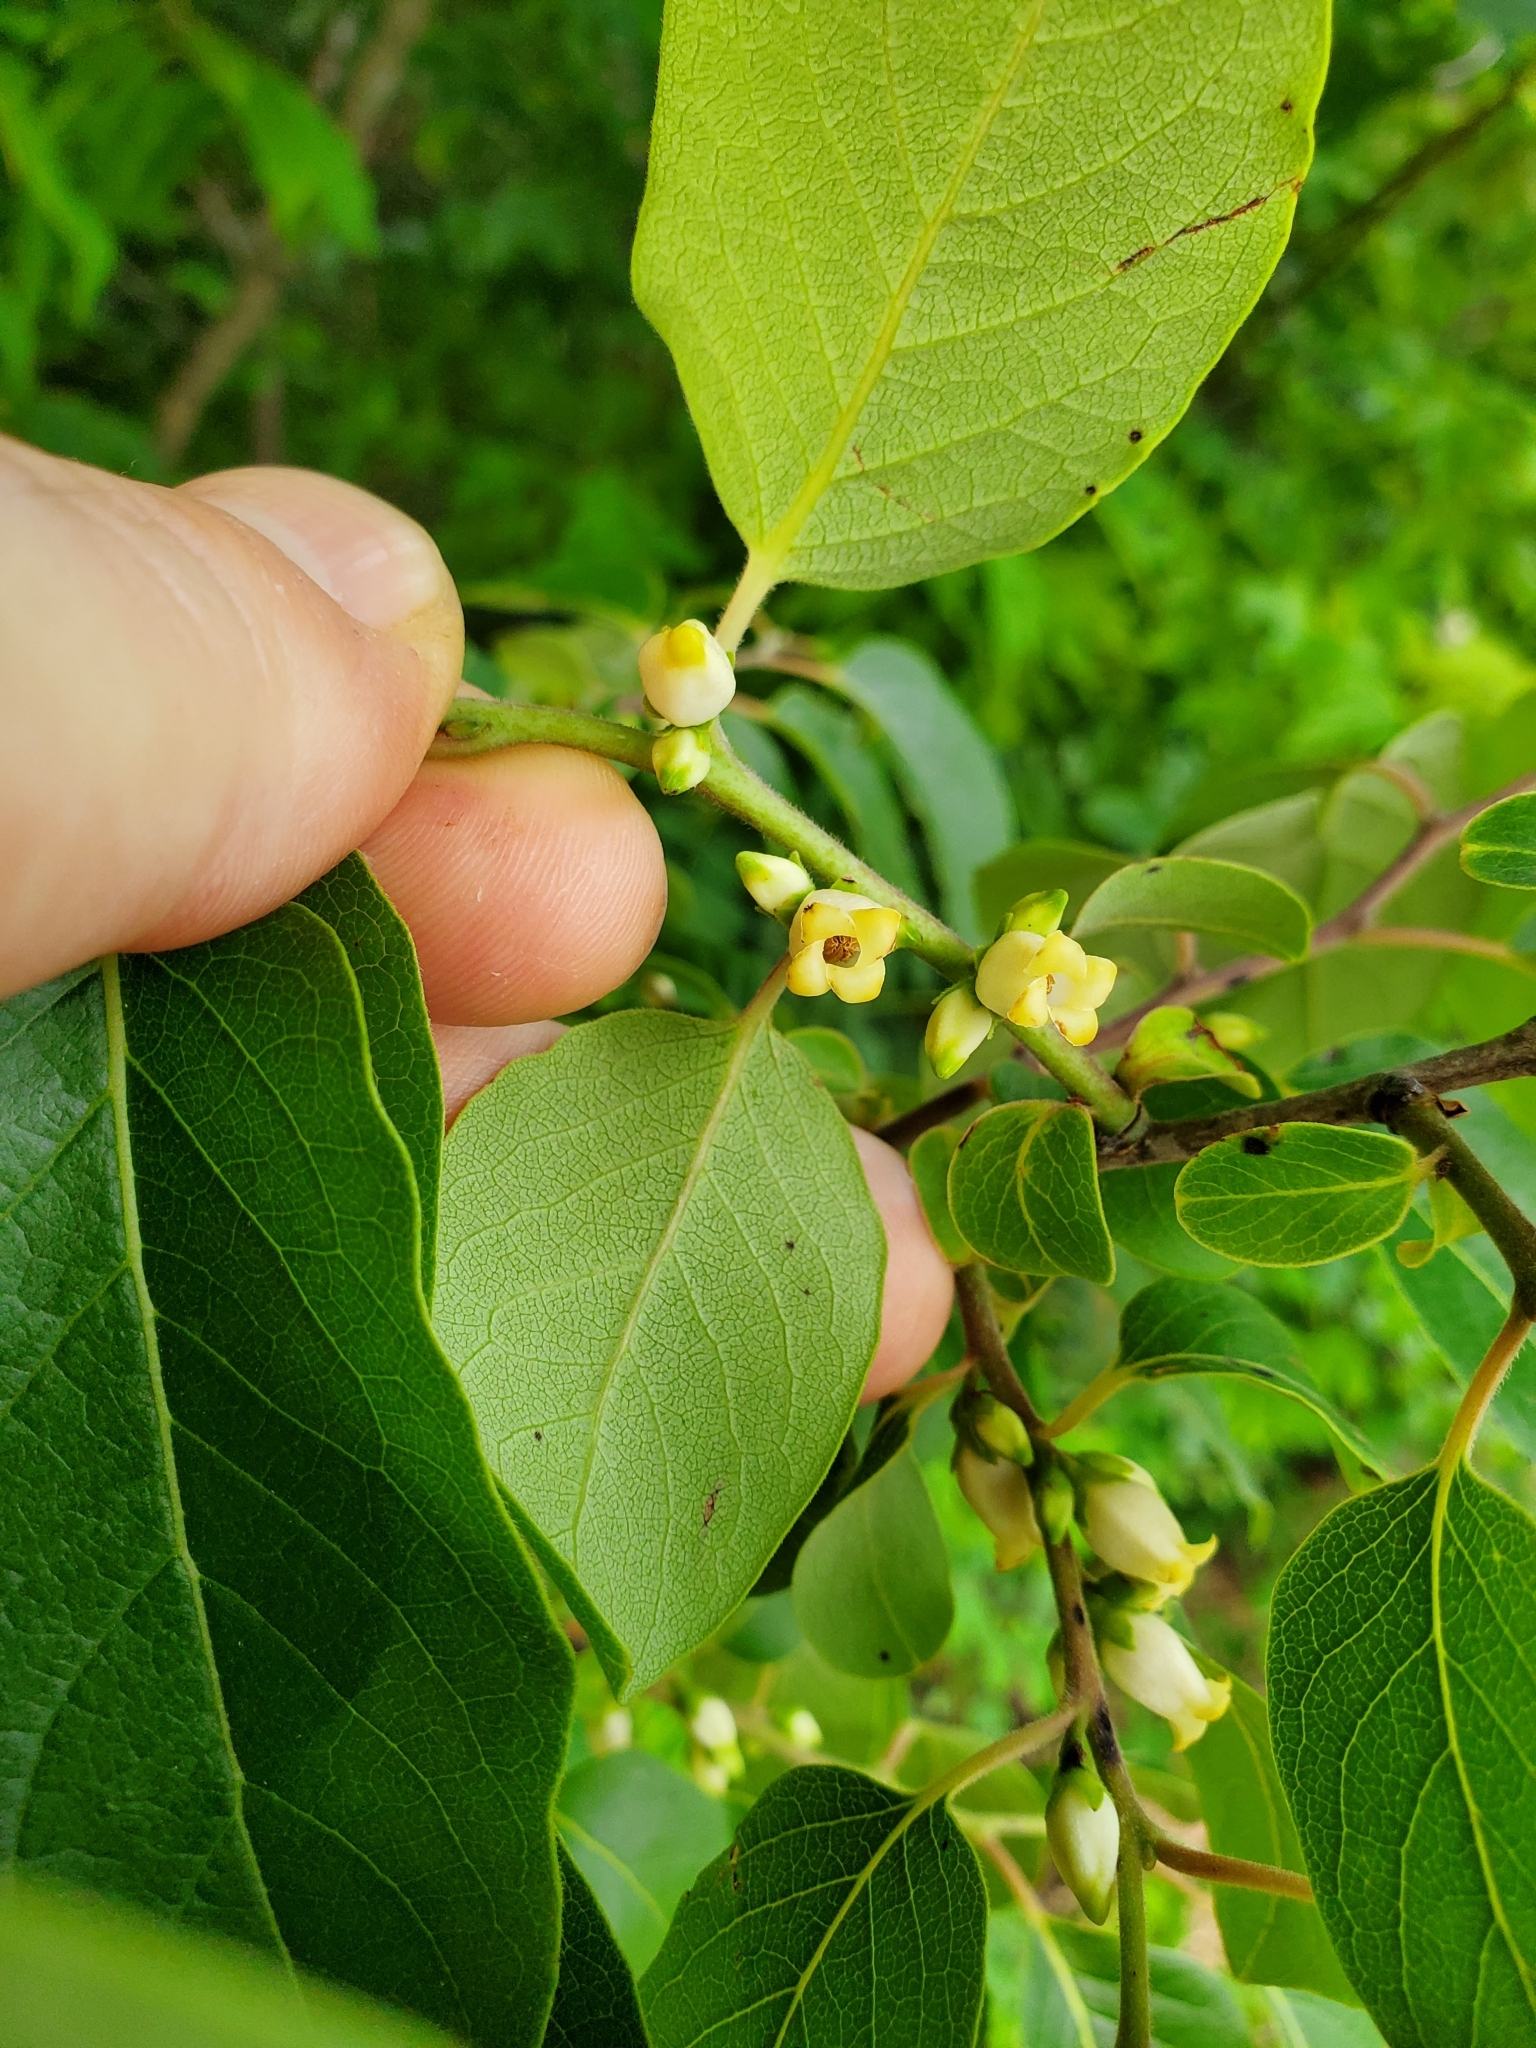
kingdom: Plantae
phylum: Tracheophyta
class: Magnoliopsida
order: Ericales
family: Ebenaceae
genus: Diospyros
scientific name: Diospyros virginiana
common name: Persimmon
